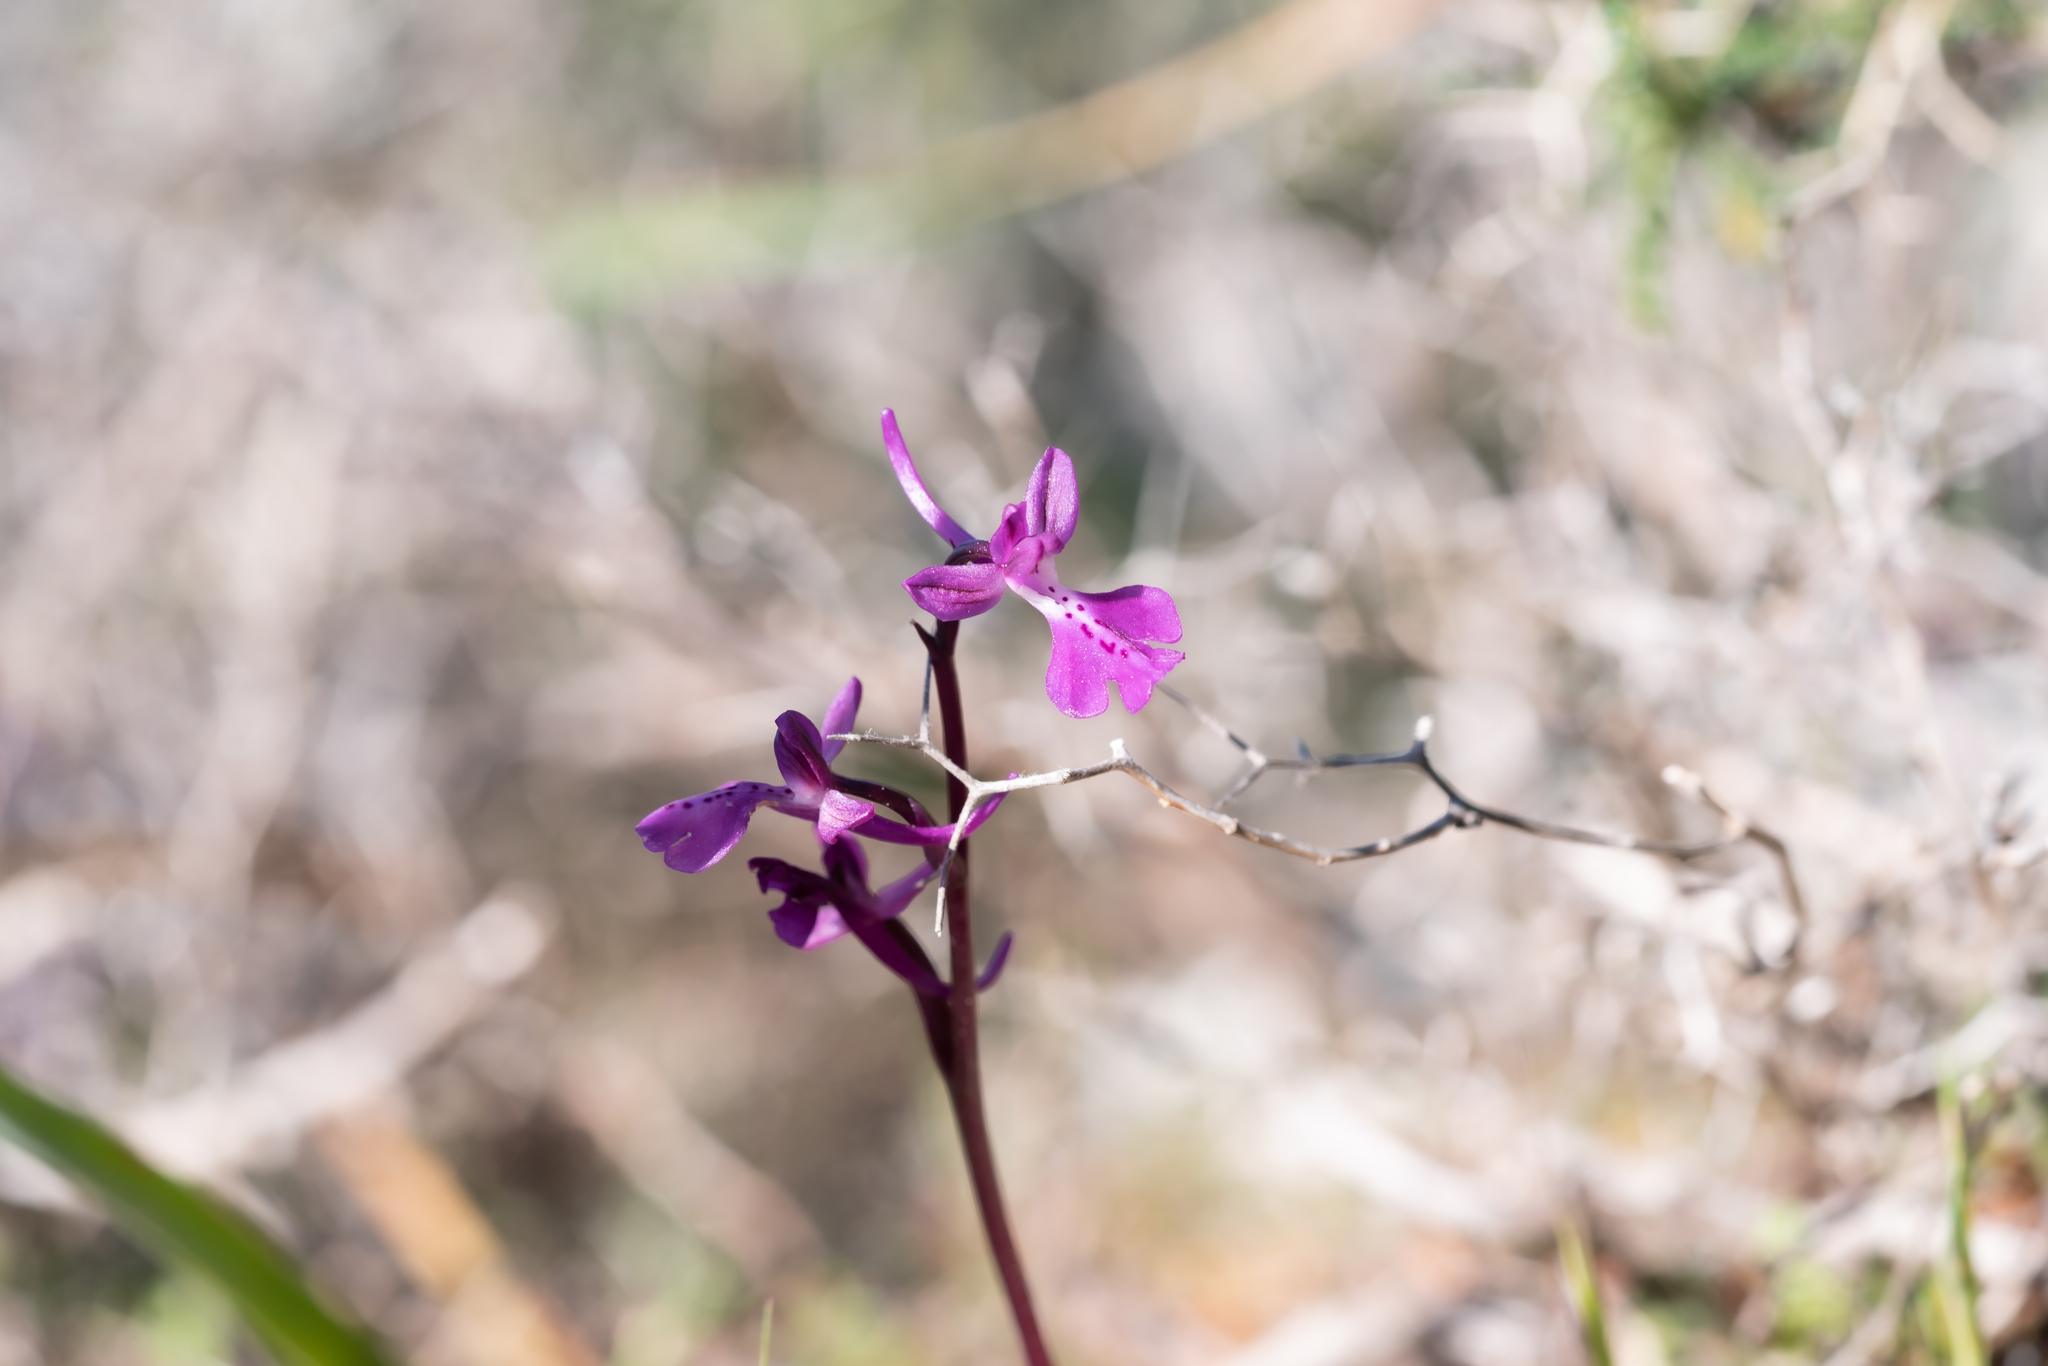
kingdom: Plantae
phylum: Tracheophyta
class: Liliopsida
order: Asparagales
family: Orchidaceae
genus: Orchis
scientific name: Orchis anatolica
